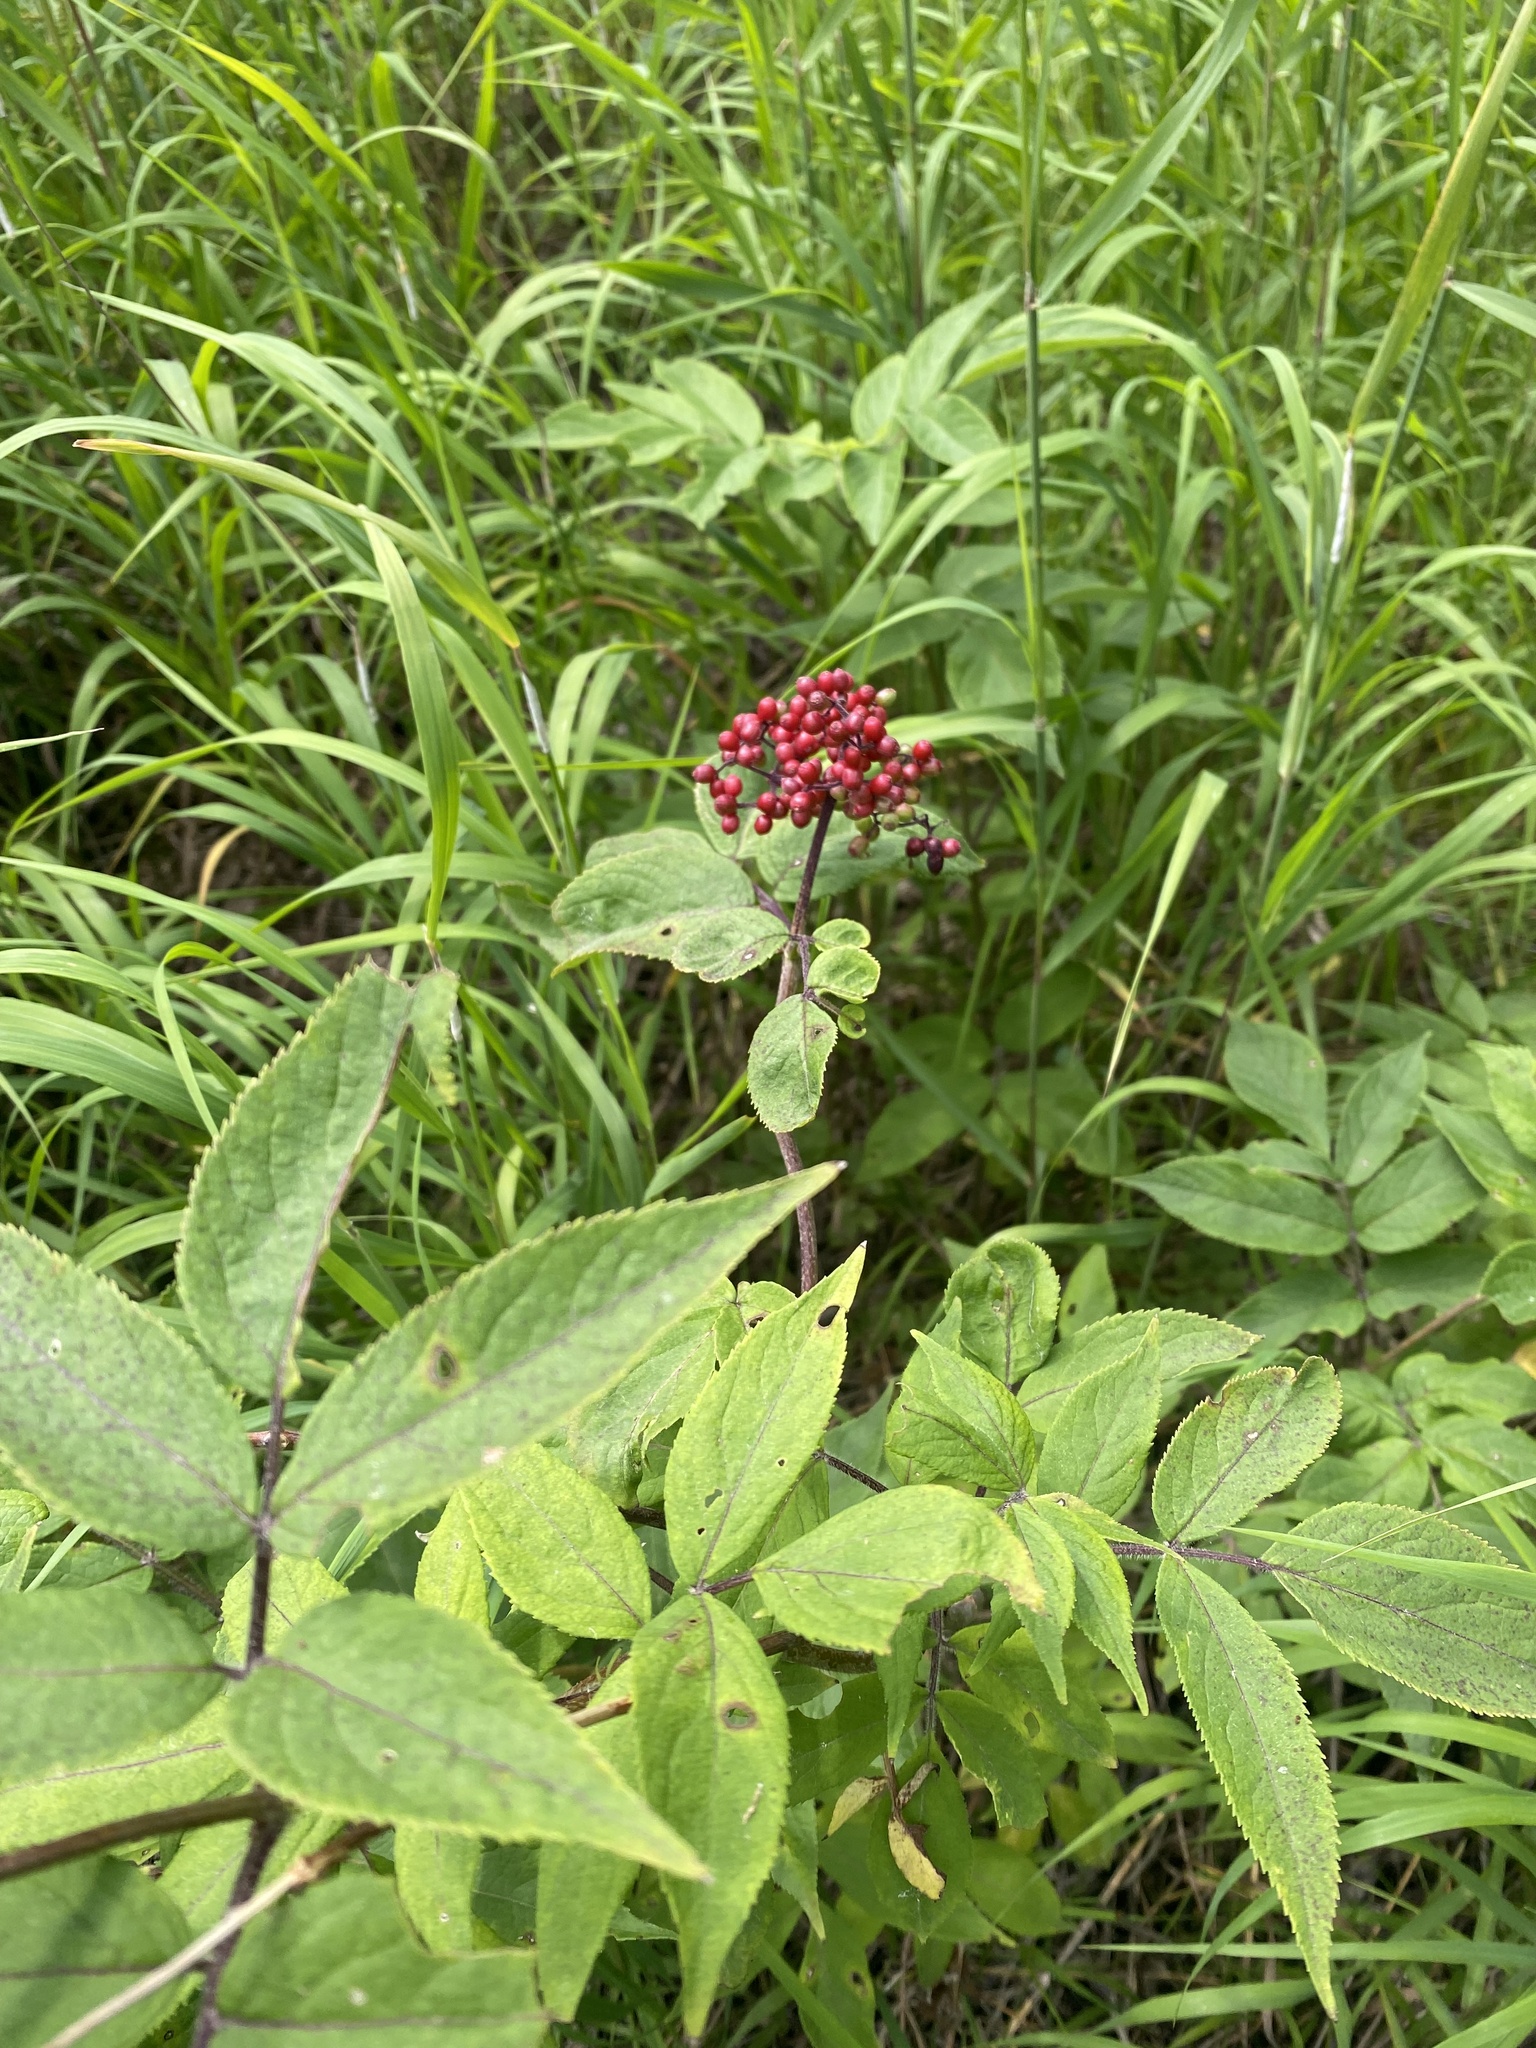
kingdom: Plantae
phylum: Tracheophyta
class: Magnoliopsida
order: Dipsacales
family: Viburnaceae
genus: Sambucus
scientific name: Sambucus sibirica
